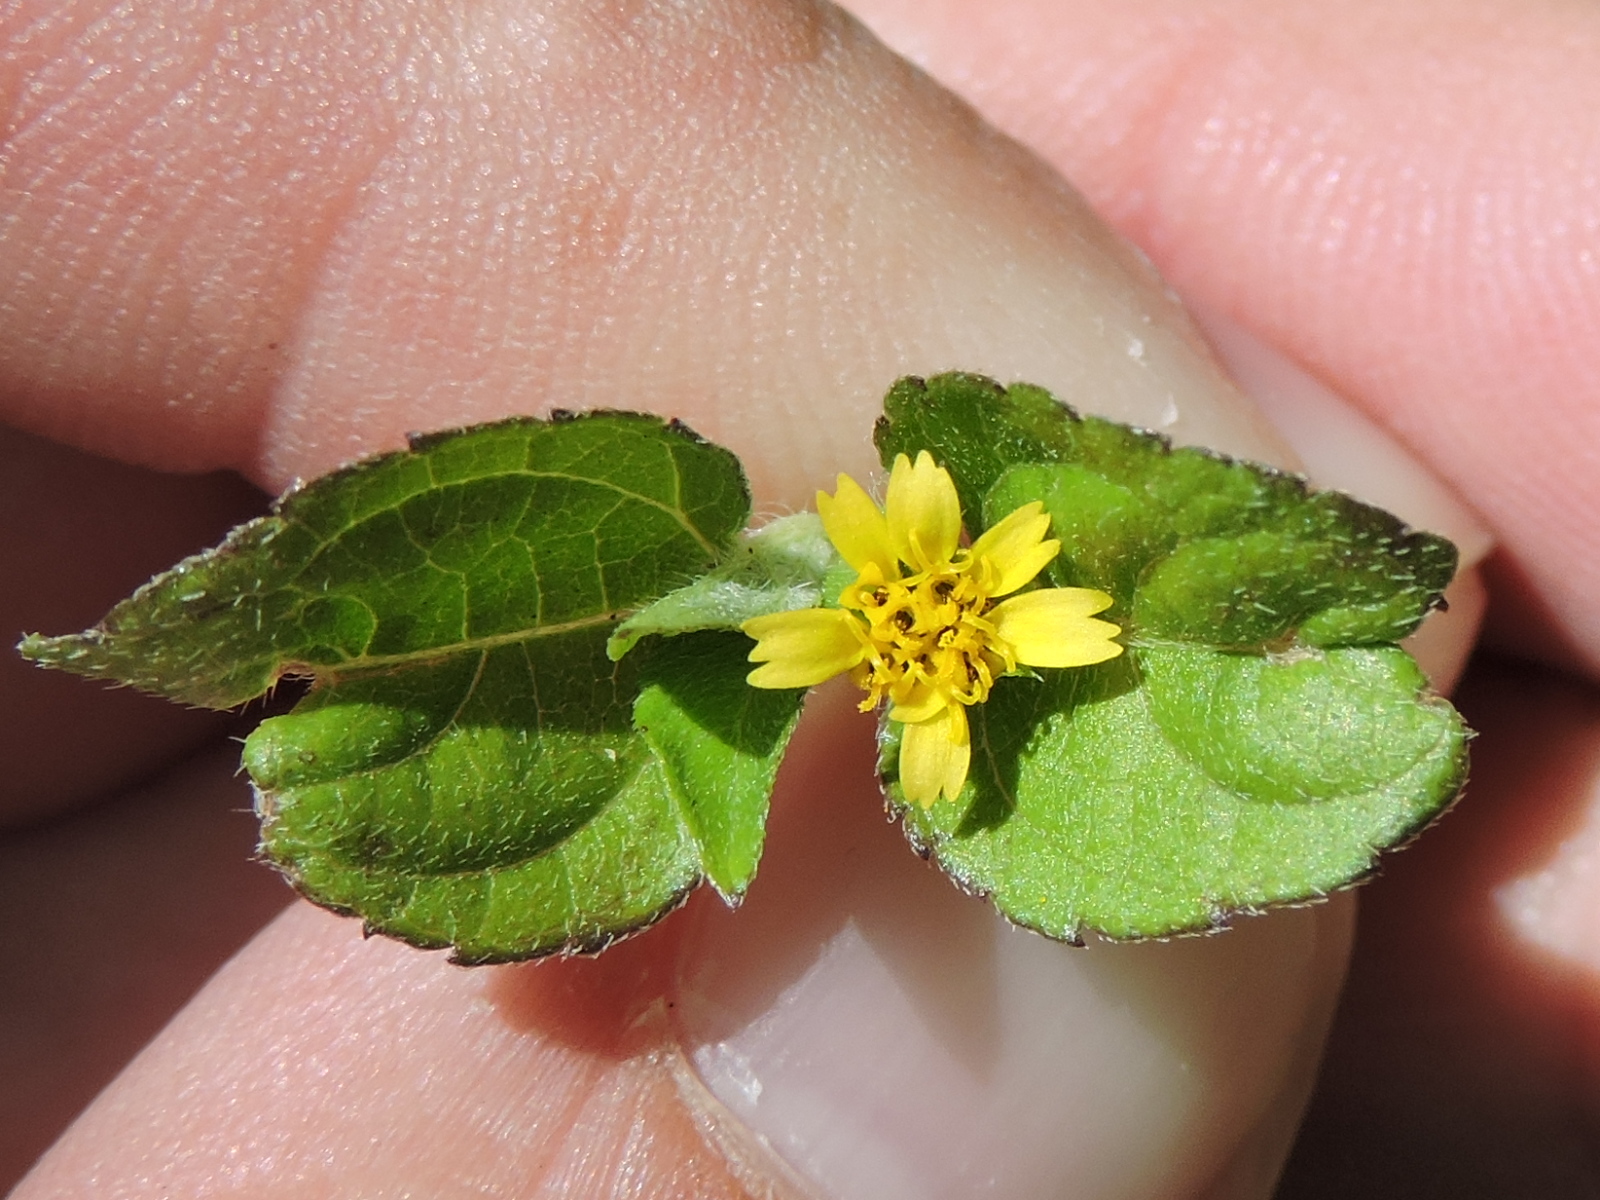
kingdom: Plantae
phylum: Tracheophyta
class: Magnoliopsida
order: Asterales
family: Asteraceae
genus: Calyptocarpus
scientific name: Calyptocarpus vialis
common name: Straggler daisy
